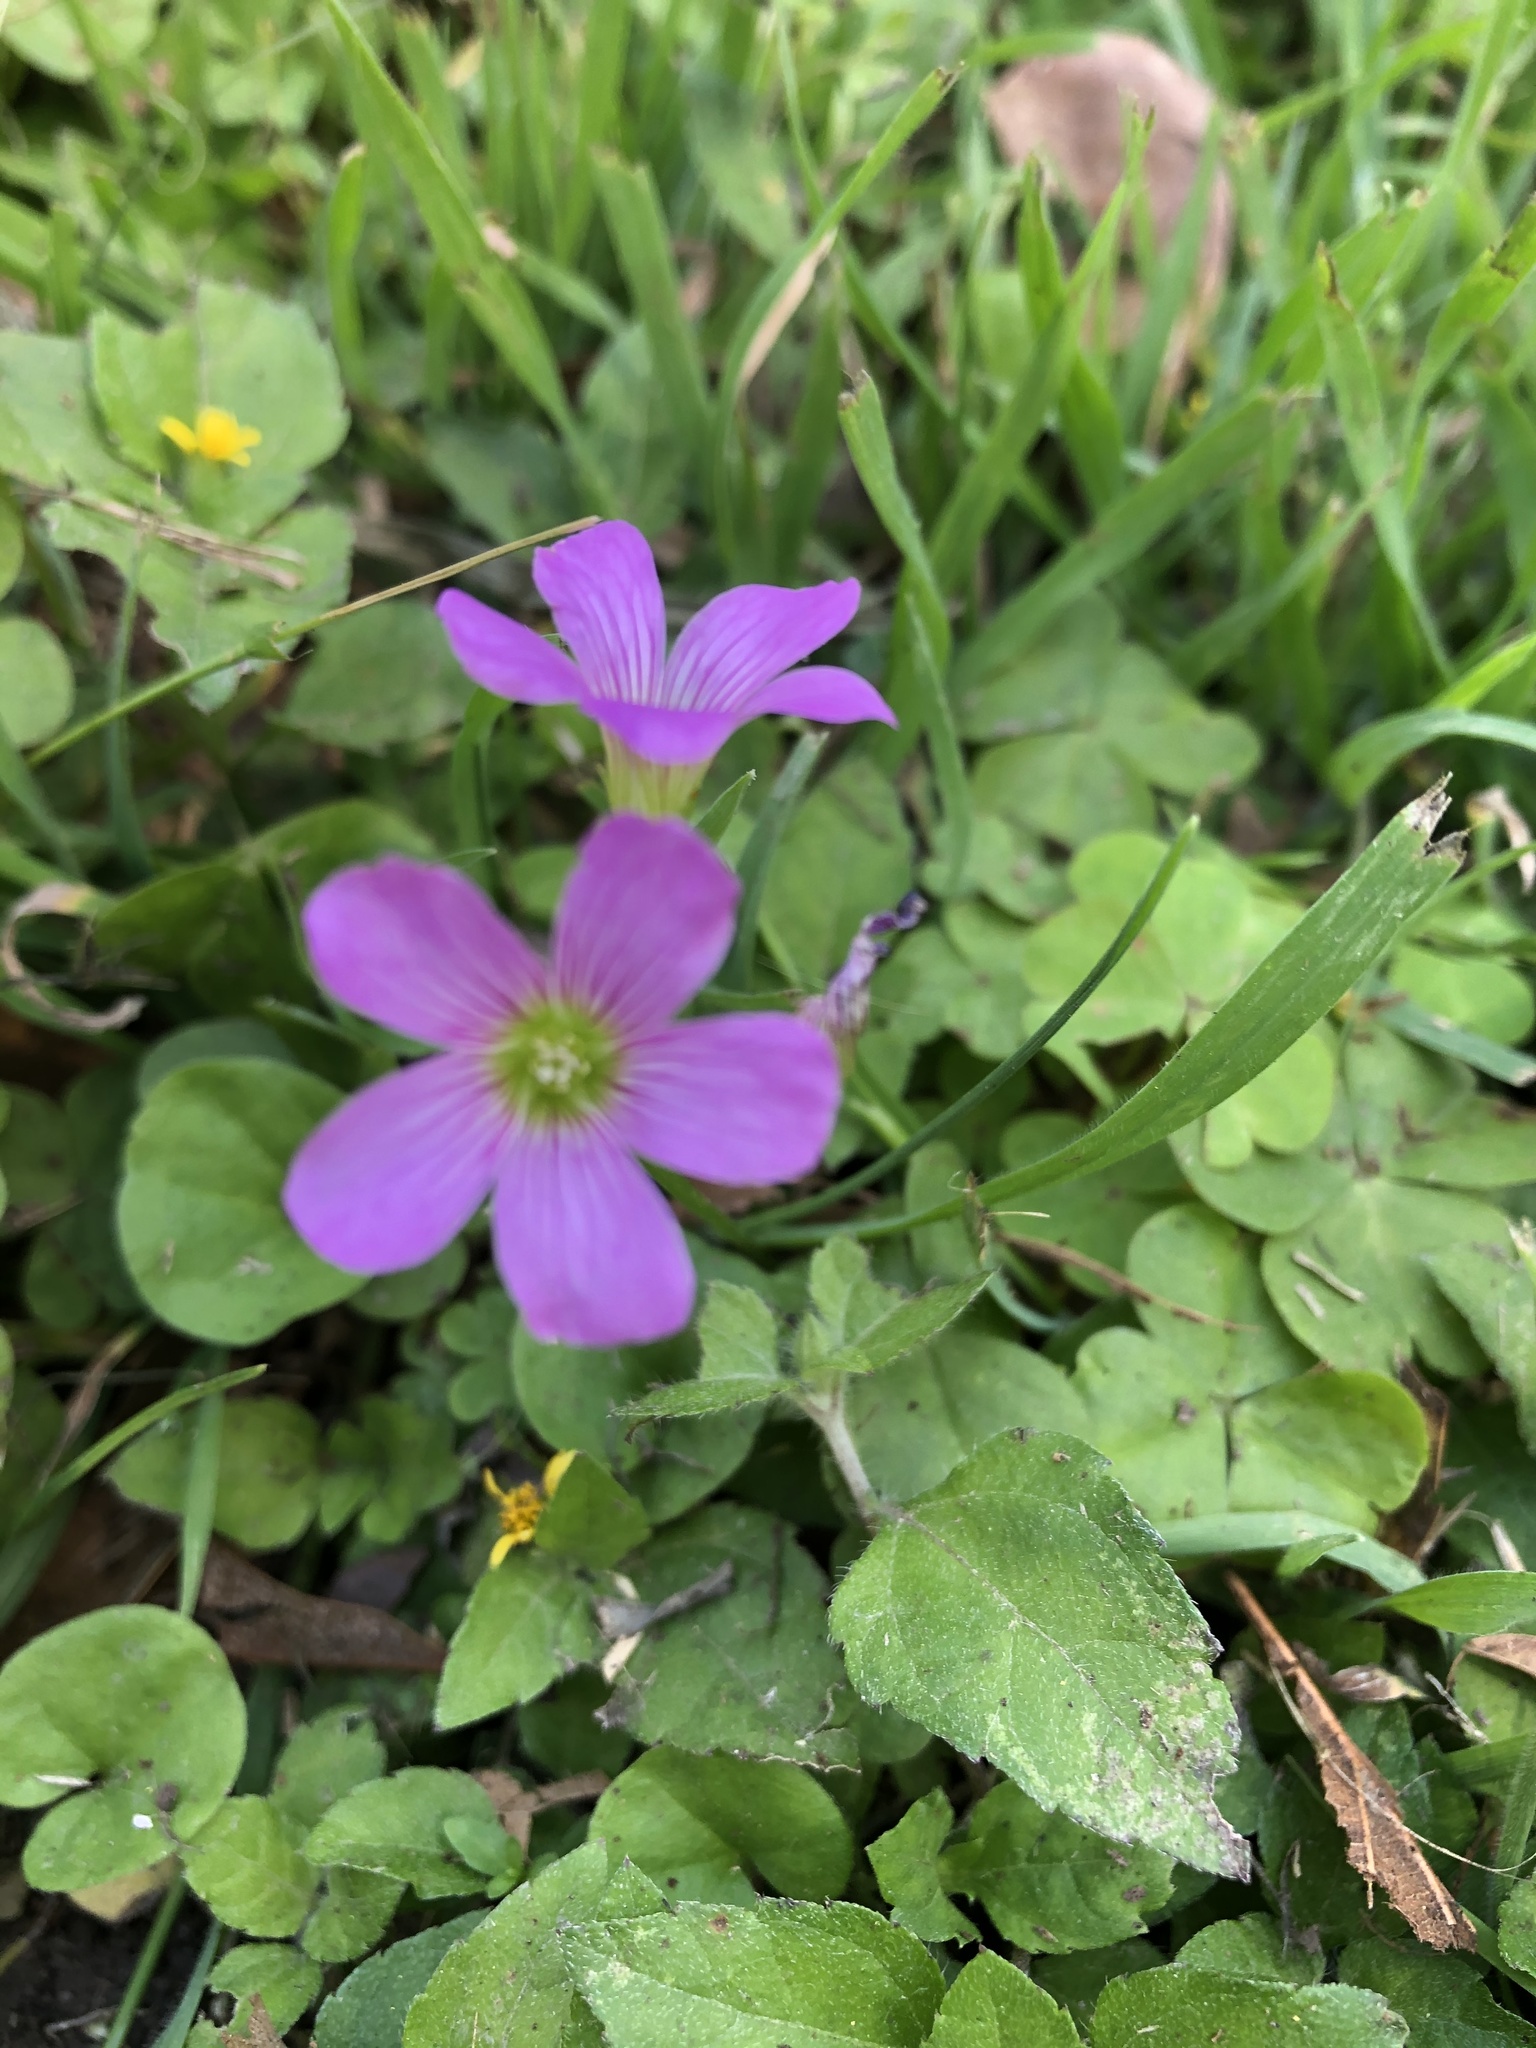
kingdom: Plantae
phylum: Tracheophyta
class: Magnoliopsida
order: Oxalidales
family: Oxalidaceae
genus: Oxalis
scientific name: Oxalis debilis
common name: Large-flowered pink-sorrel
